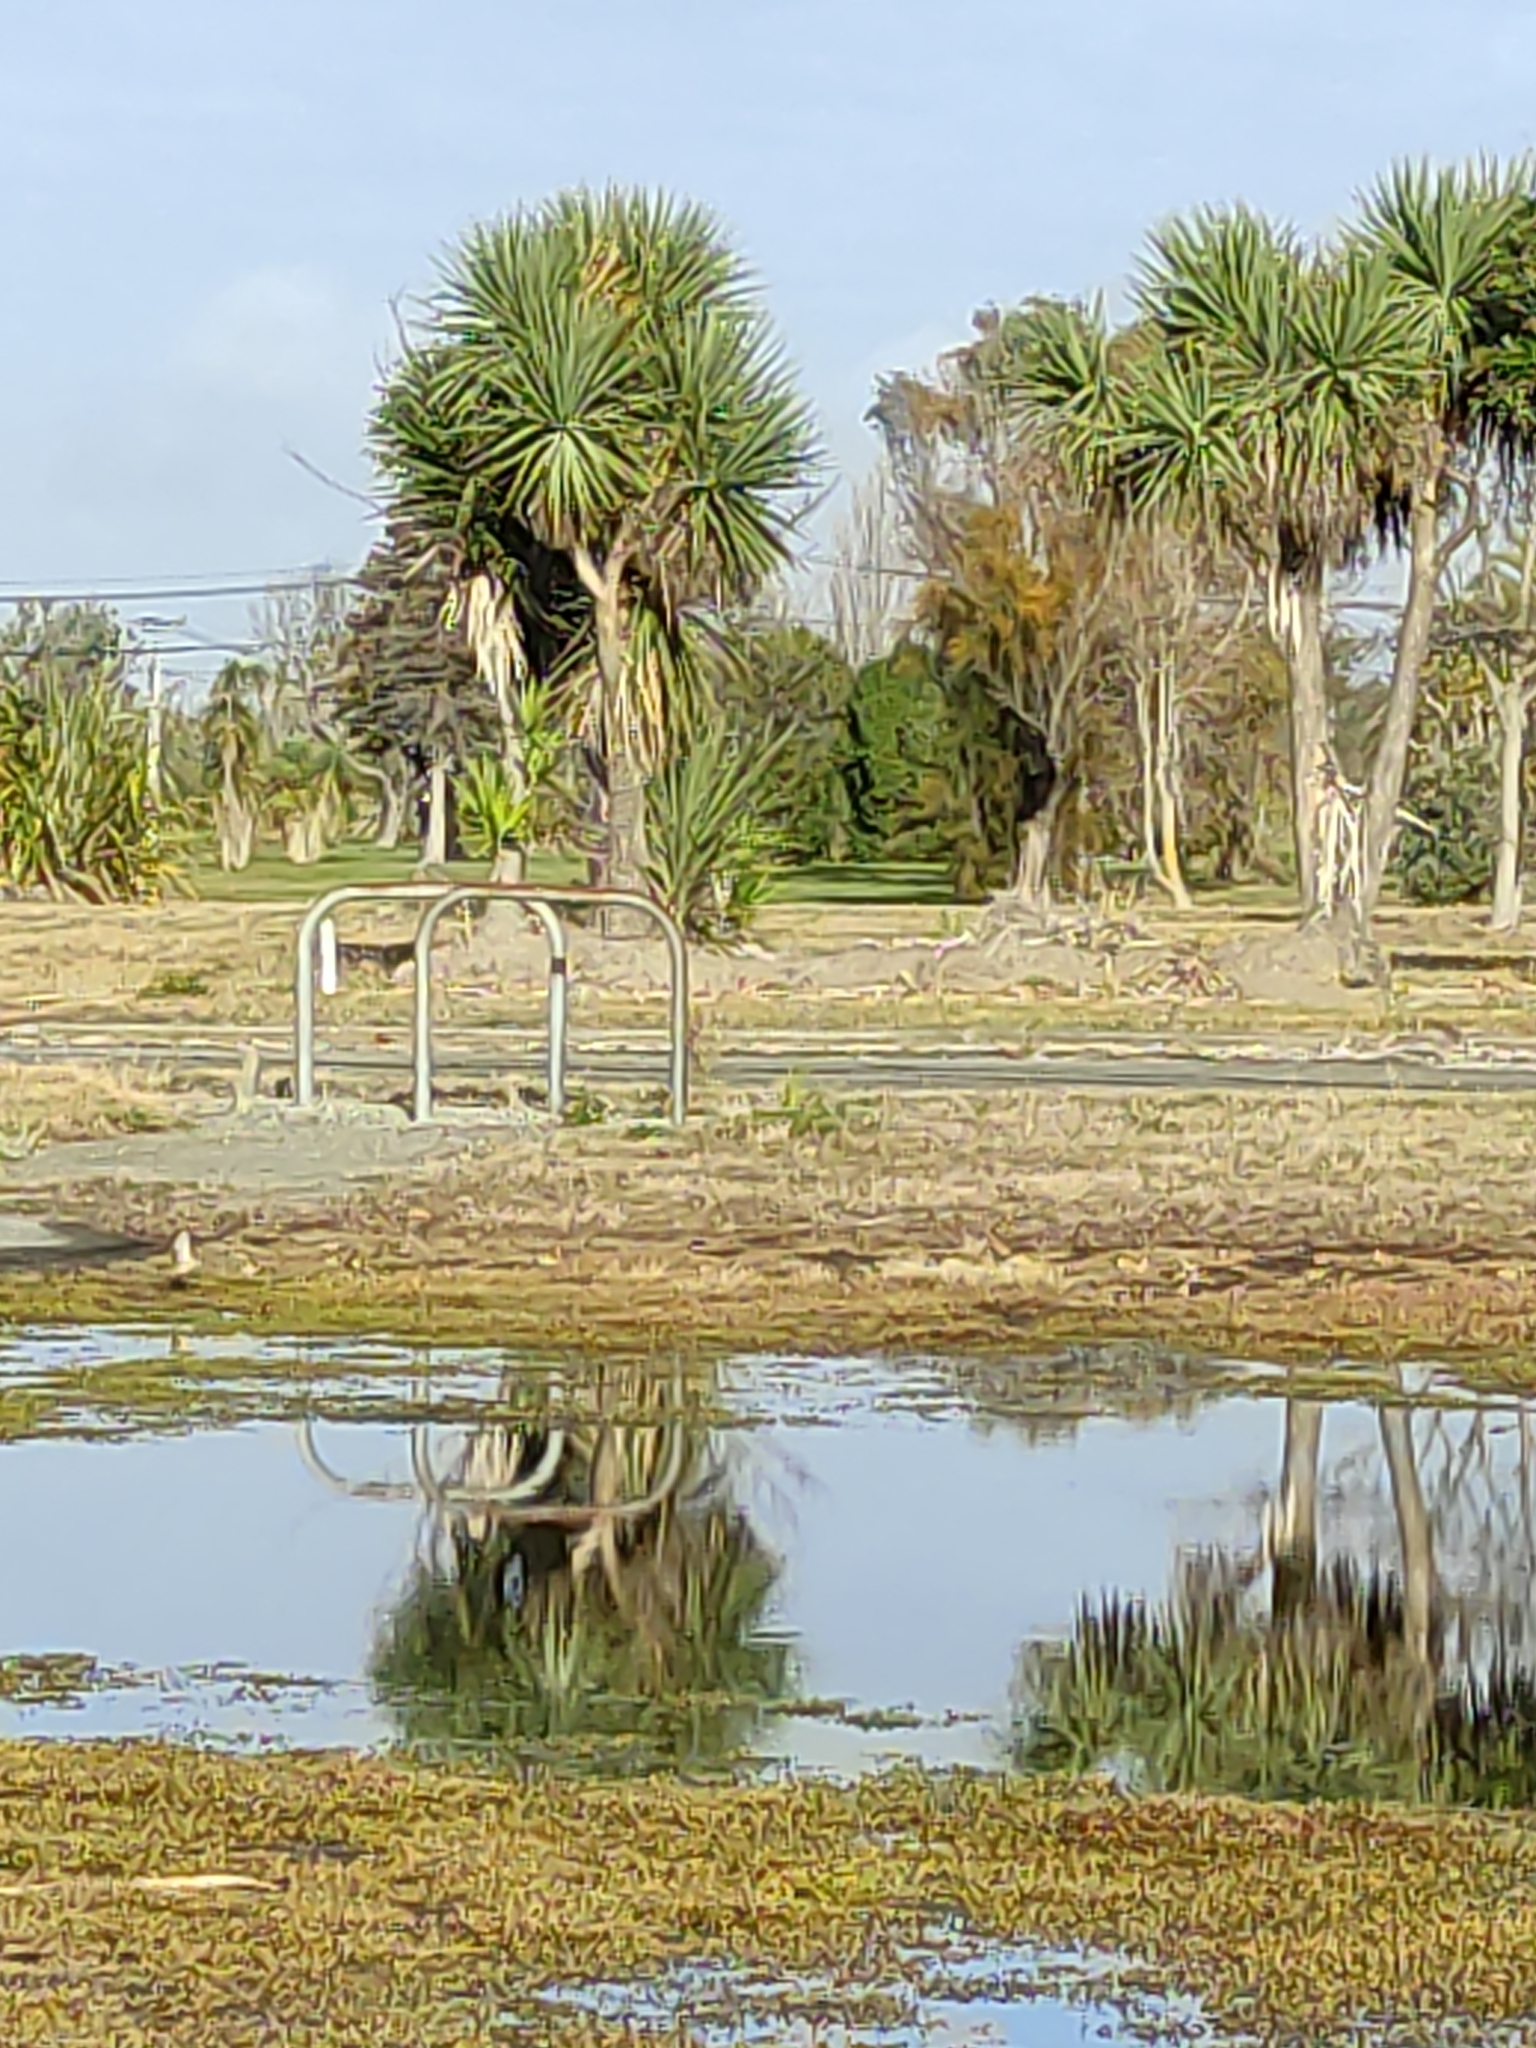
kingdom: Plantae
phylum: Tracheophyta
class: Liliopsida
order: Asparagales
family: Asparagaceae
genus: Cordyline
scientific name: Cordyline australis
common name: Cabbage-palm
